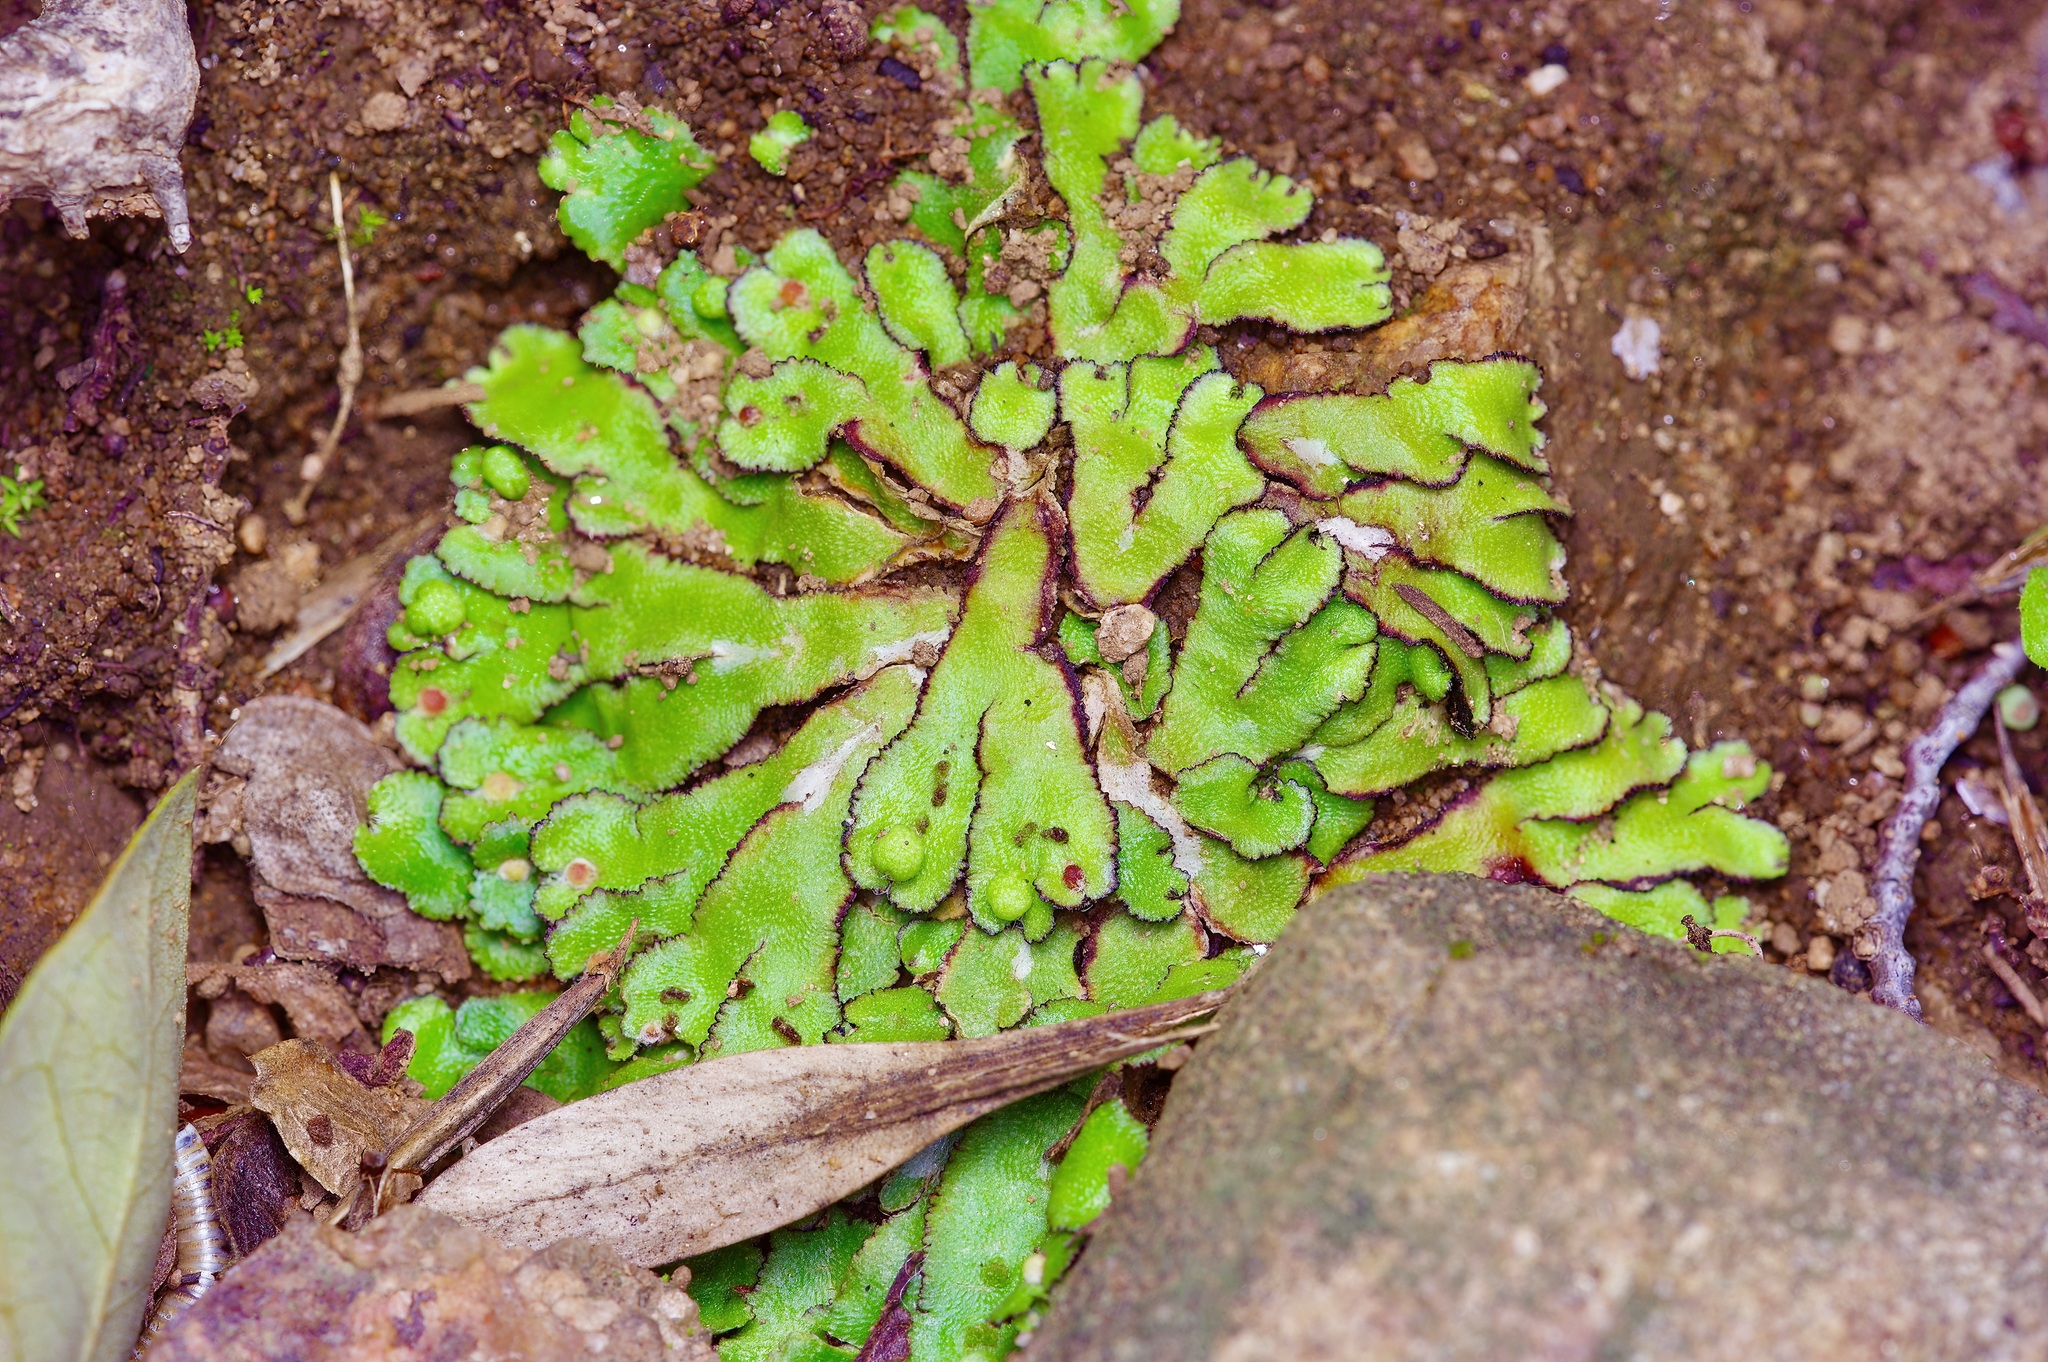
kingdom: Plantae
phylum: Marchantiophyta
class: Marchantiopsida
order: Marchantiales
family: Aytoniaceae
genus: Reboulia
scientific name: Reboulia hemisphaerica
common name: Purple-margined liverwort
